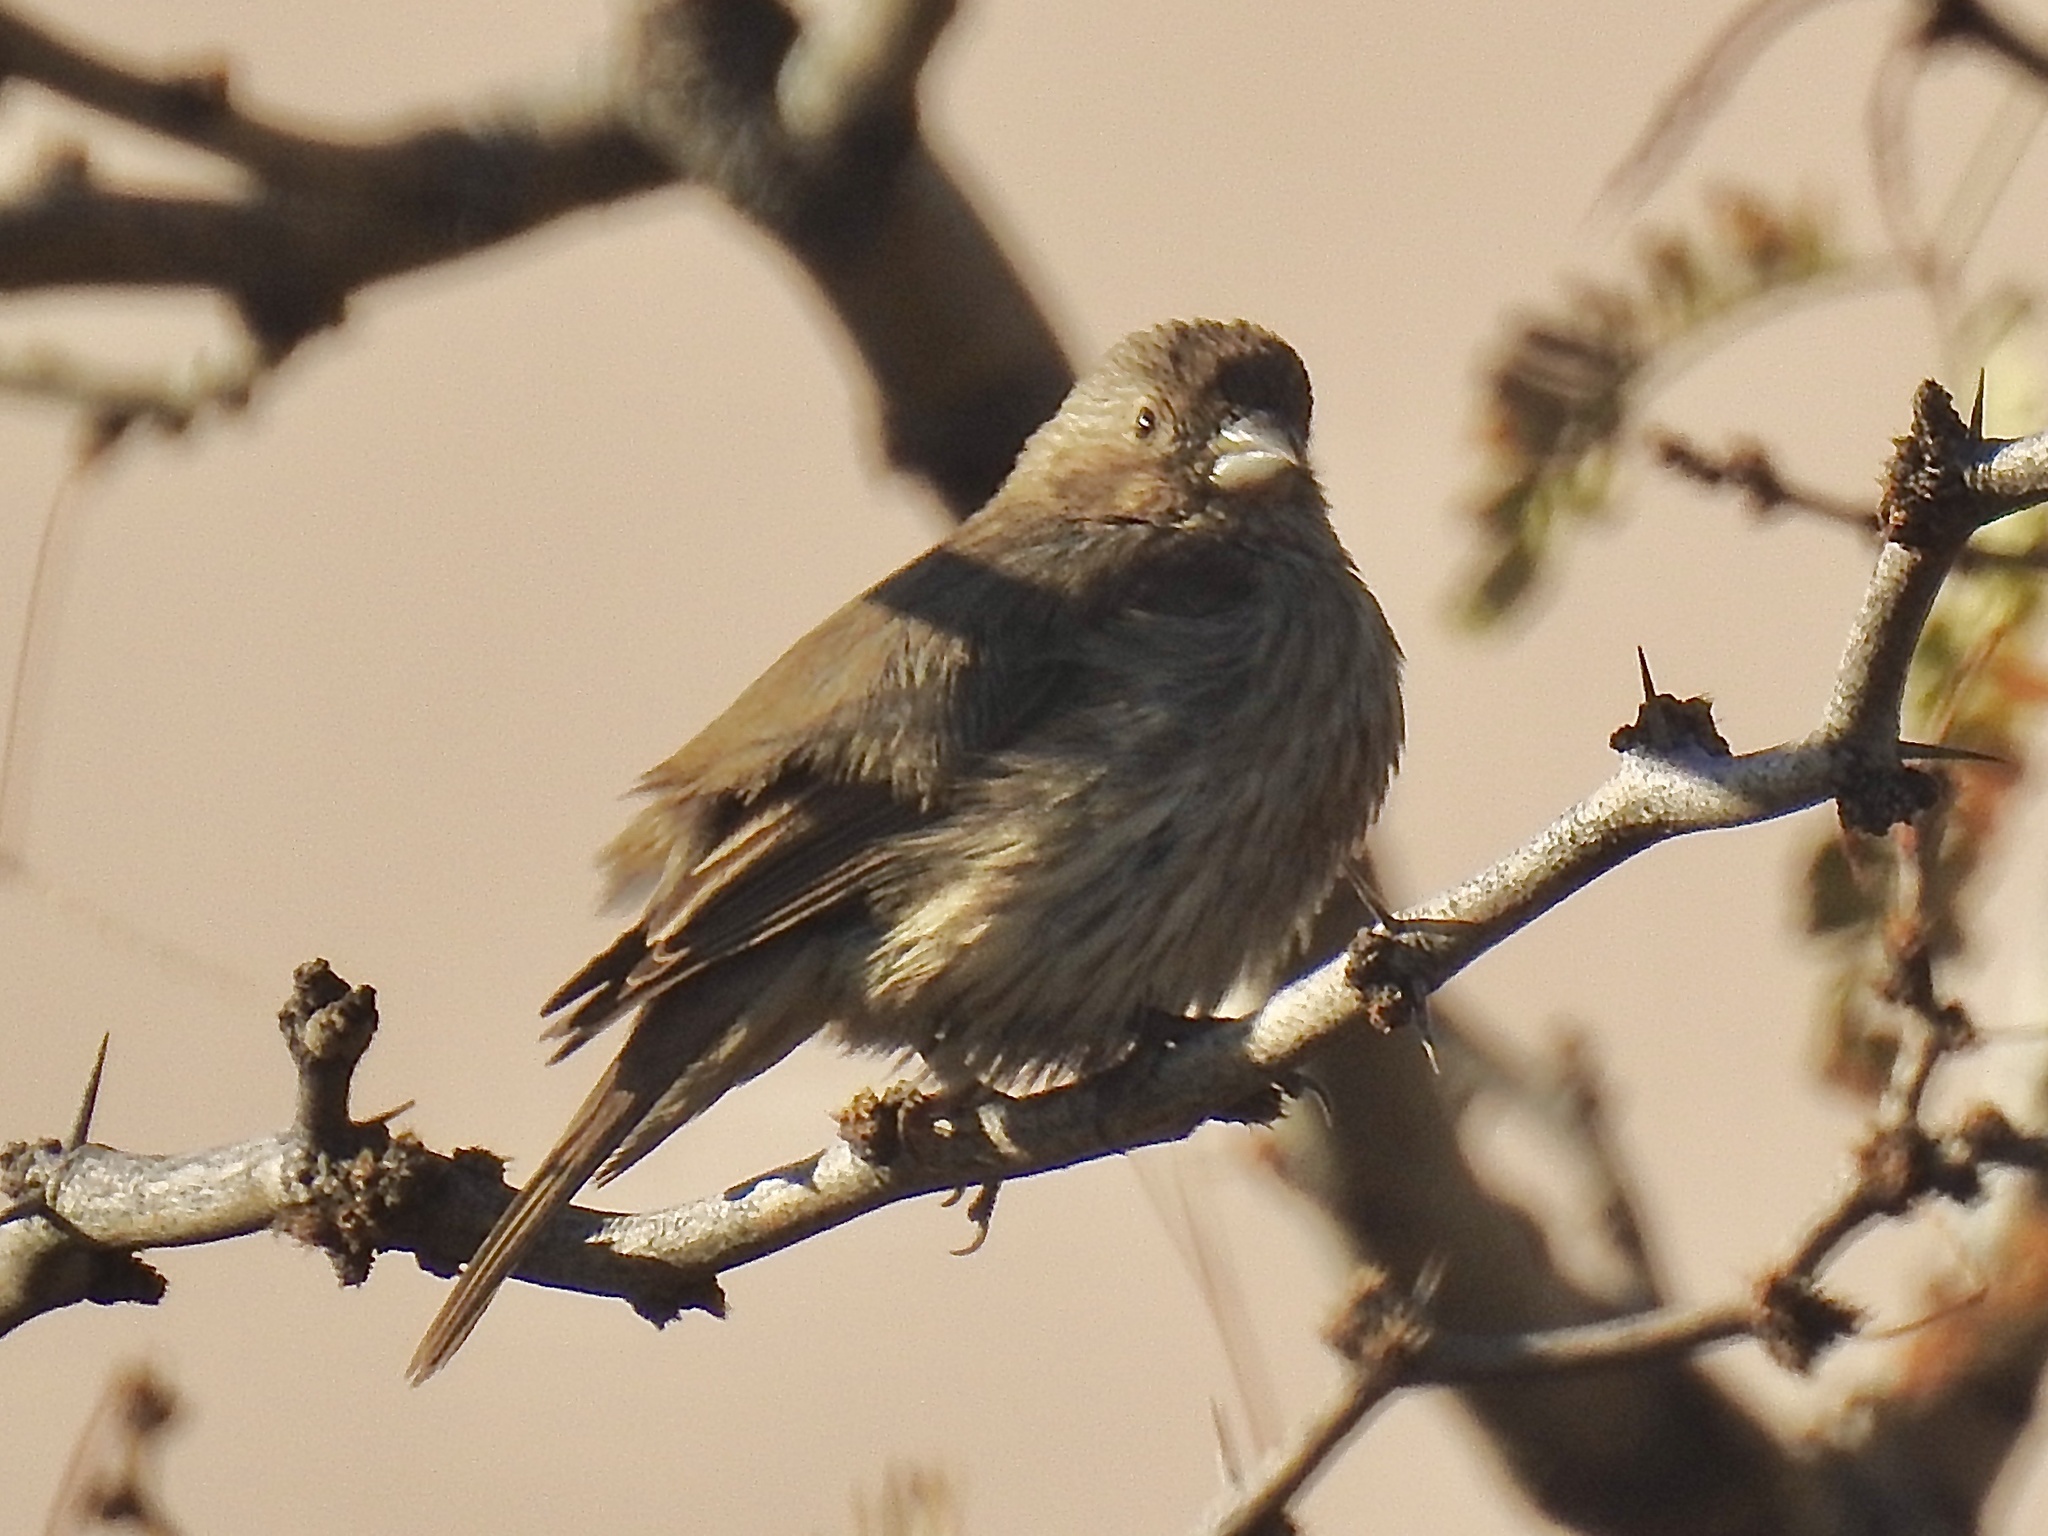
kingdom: Animalia
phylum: Chordata
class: Aves
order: Passeriformes
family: Fringillidae
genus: Haemorhous
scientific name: Haemorhous mexicanus
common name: House finch
